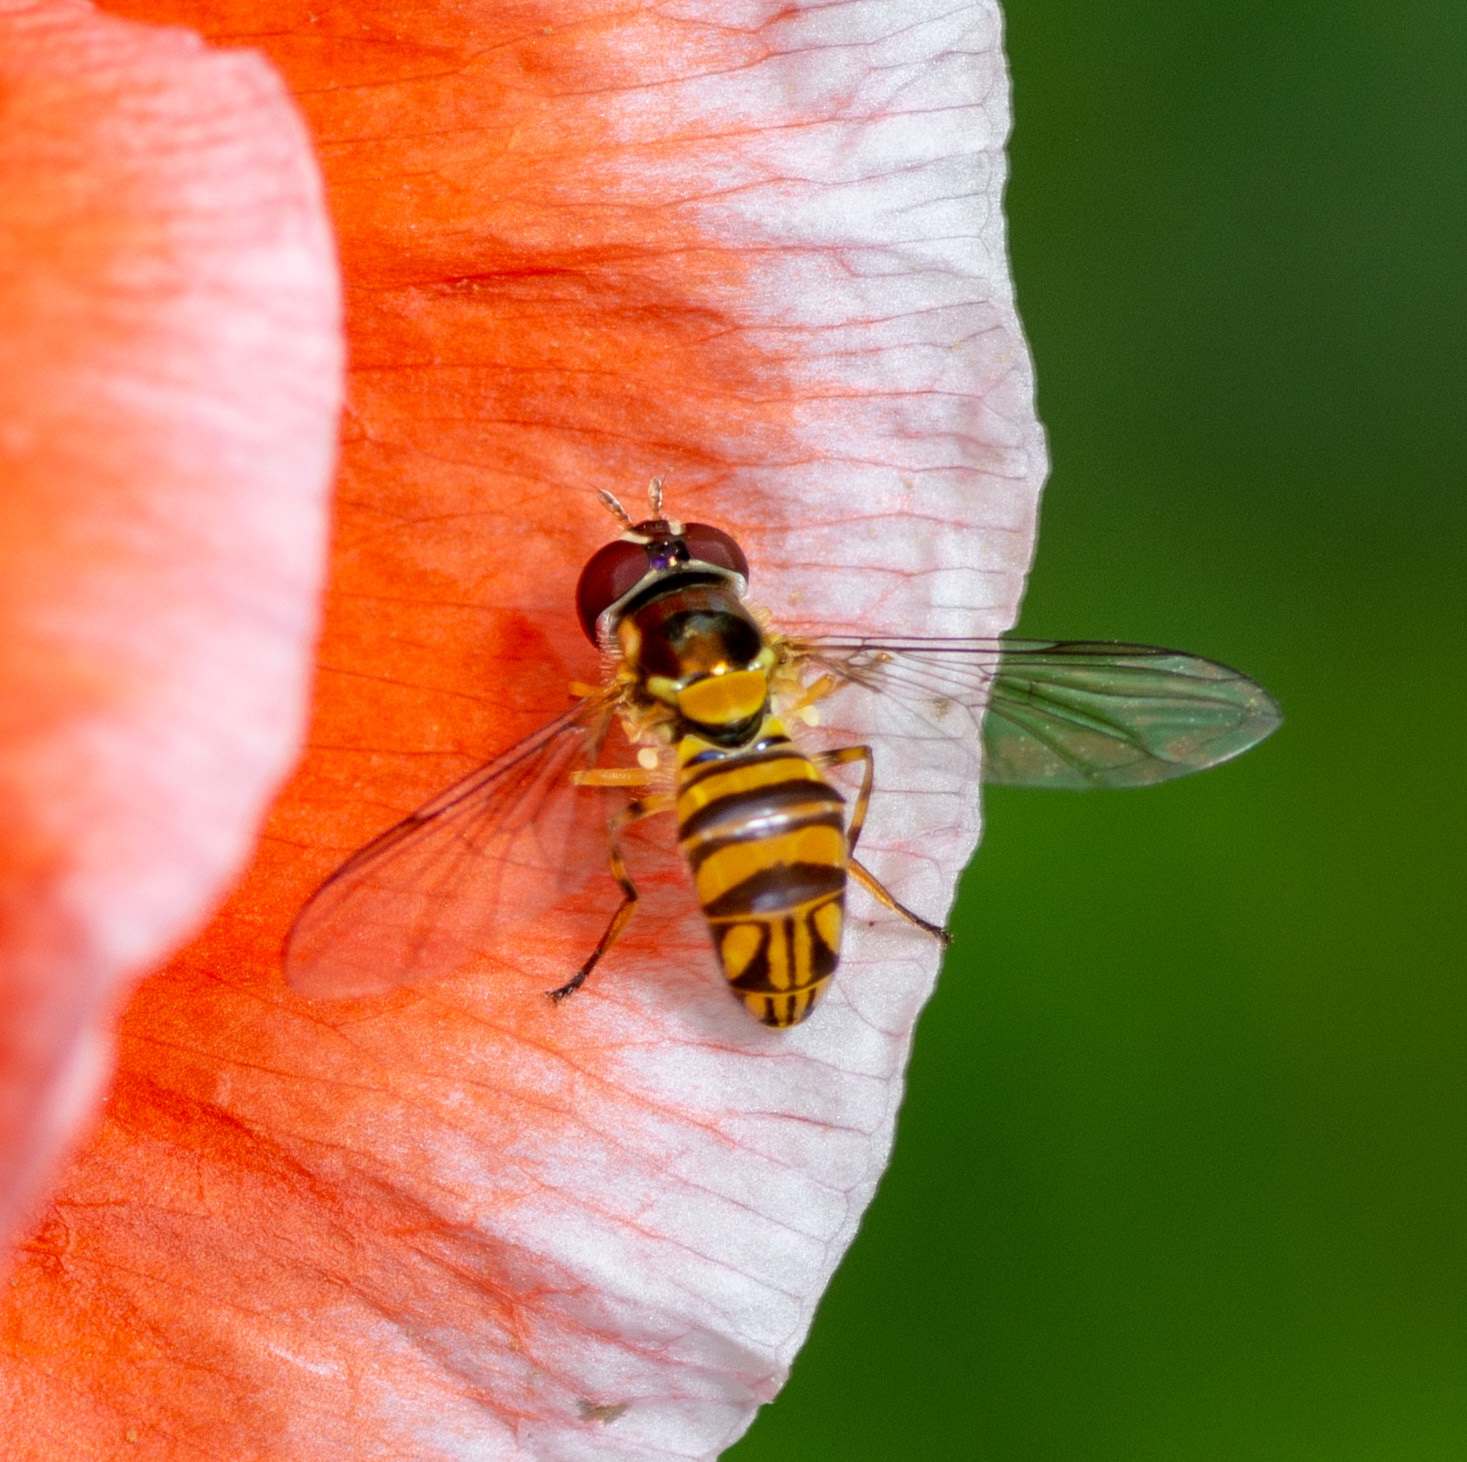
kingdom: Animalia
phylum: Arthropoda
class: Insecta
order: Diptera
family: Syrphidae
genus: Allograpta
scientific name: Allograpta obliqua
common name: Common oblique syrphid
